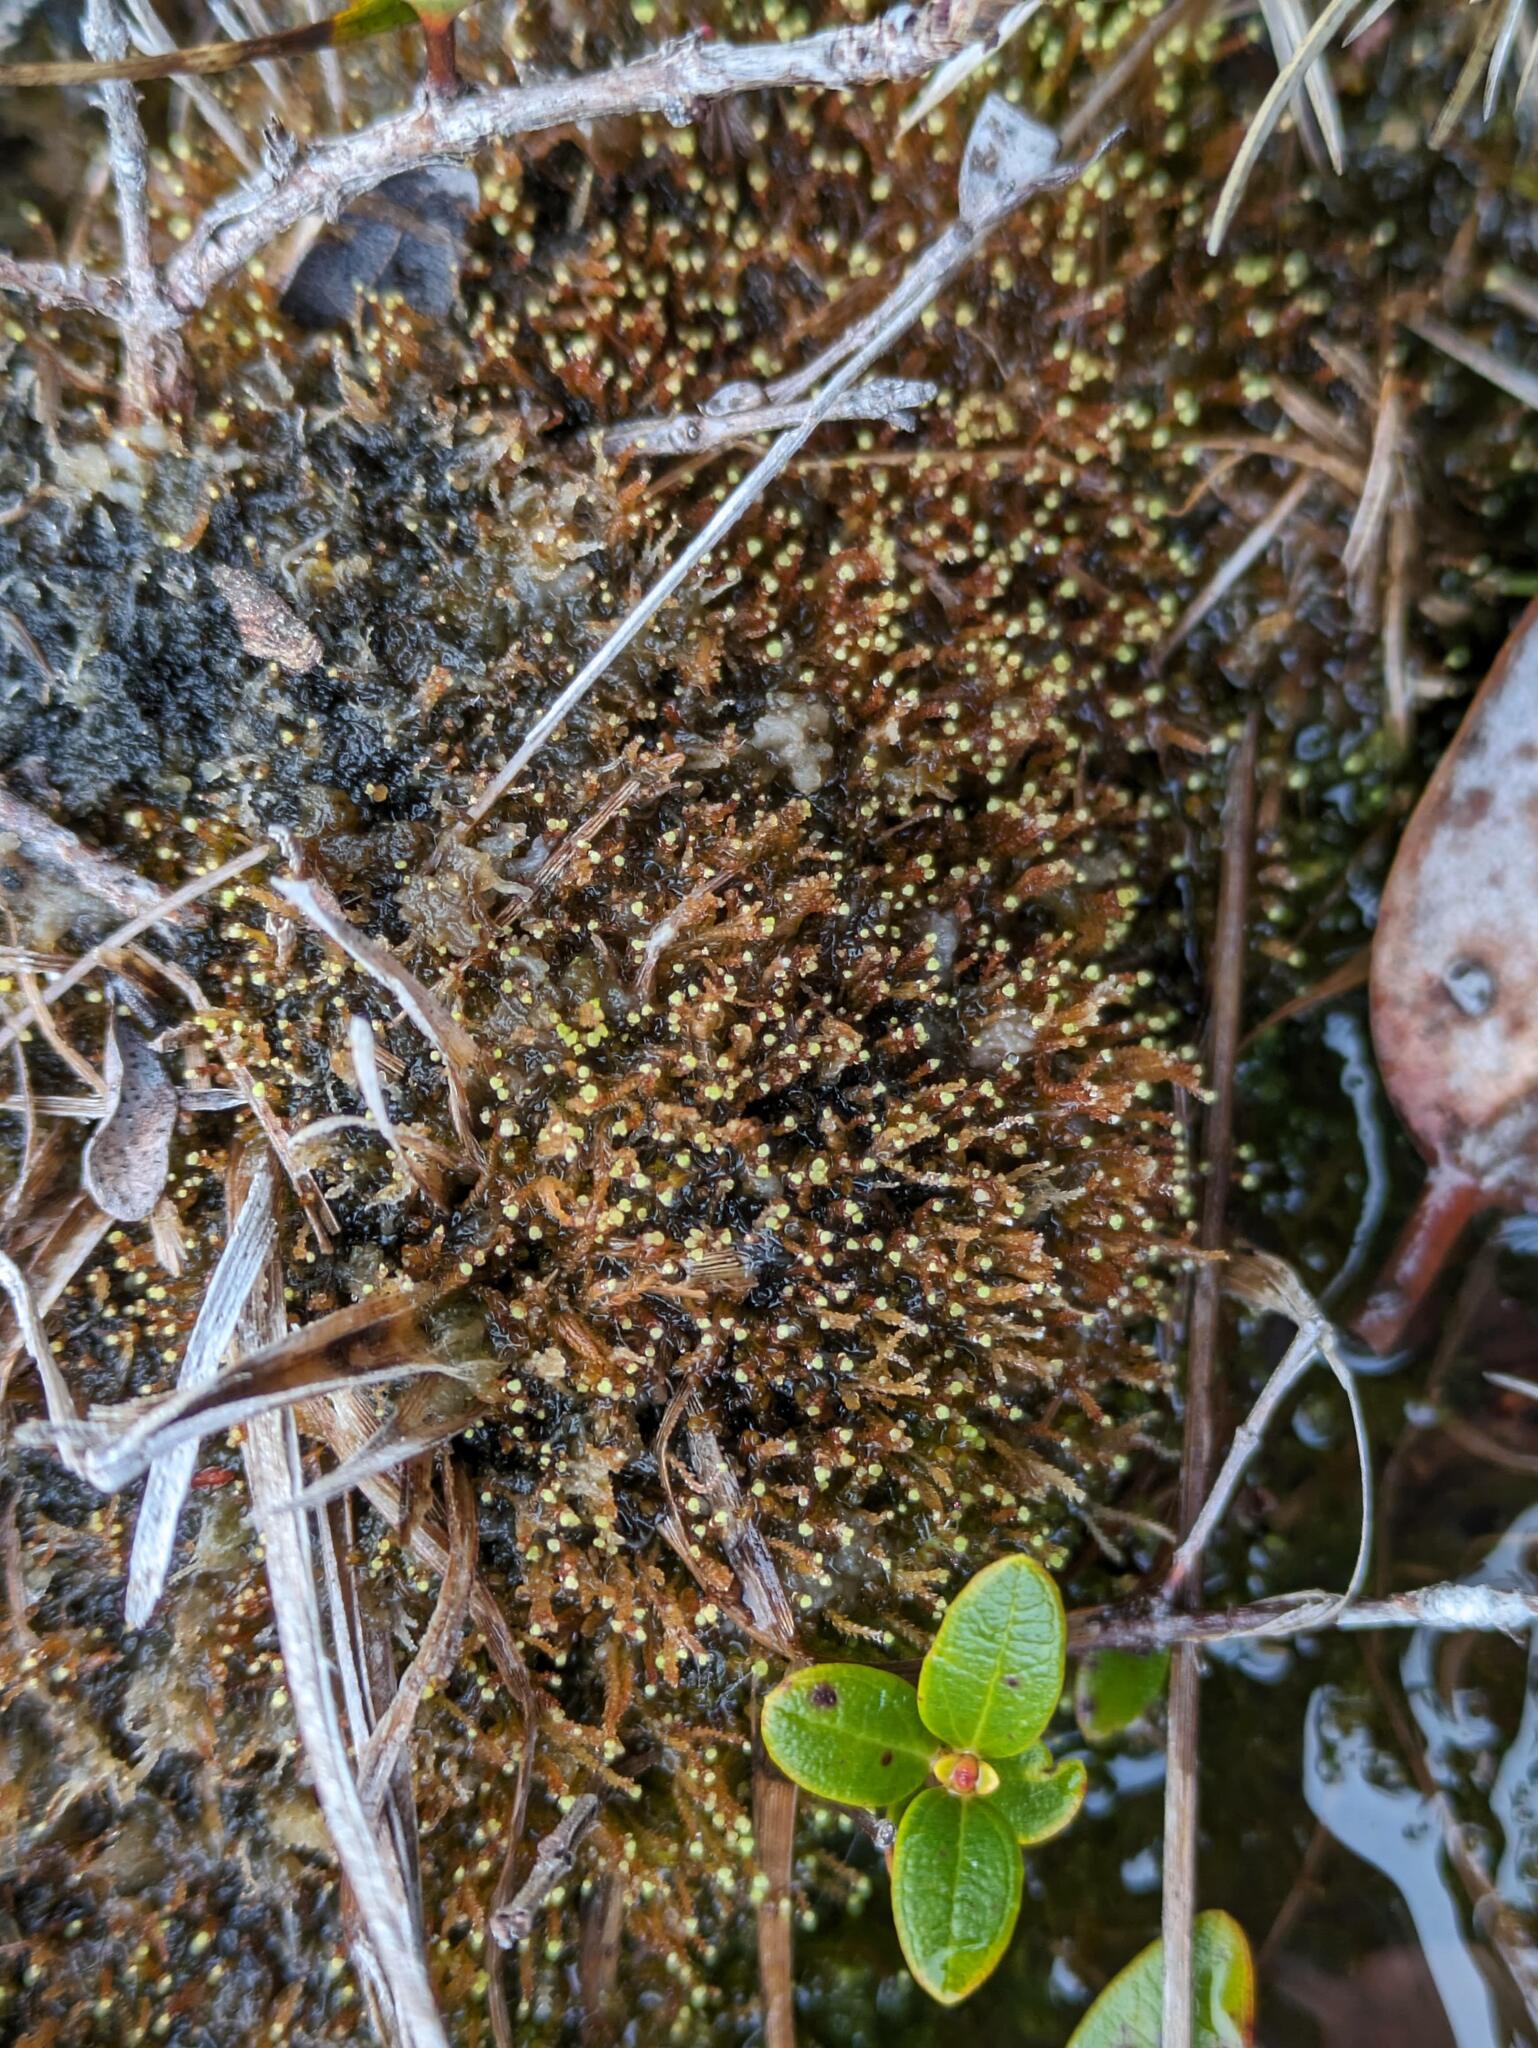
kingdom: Plantae
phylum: Marchantiophyta
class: Jungermanniopsida
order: Jungermanniales
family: Cephaloziaceae
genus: Odontoschisma
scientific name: Odontoschisma denudatum
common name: Matchstick flapwort
